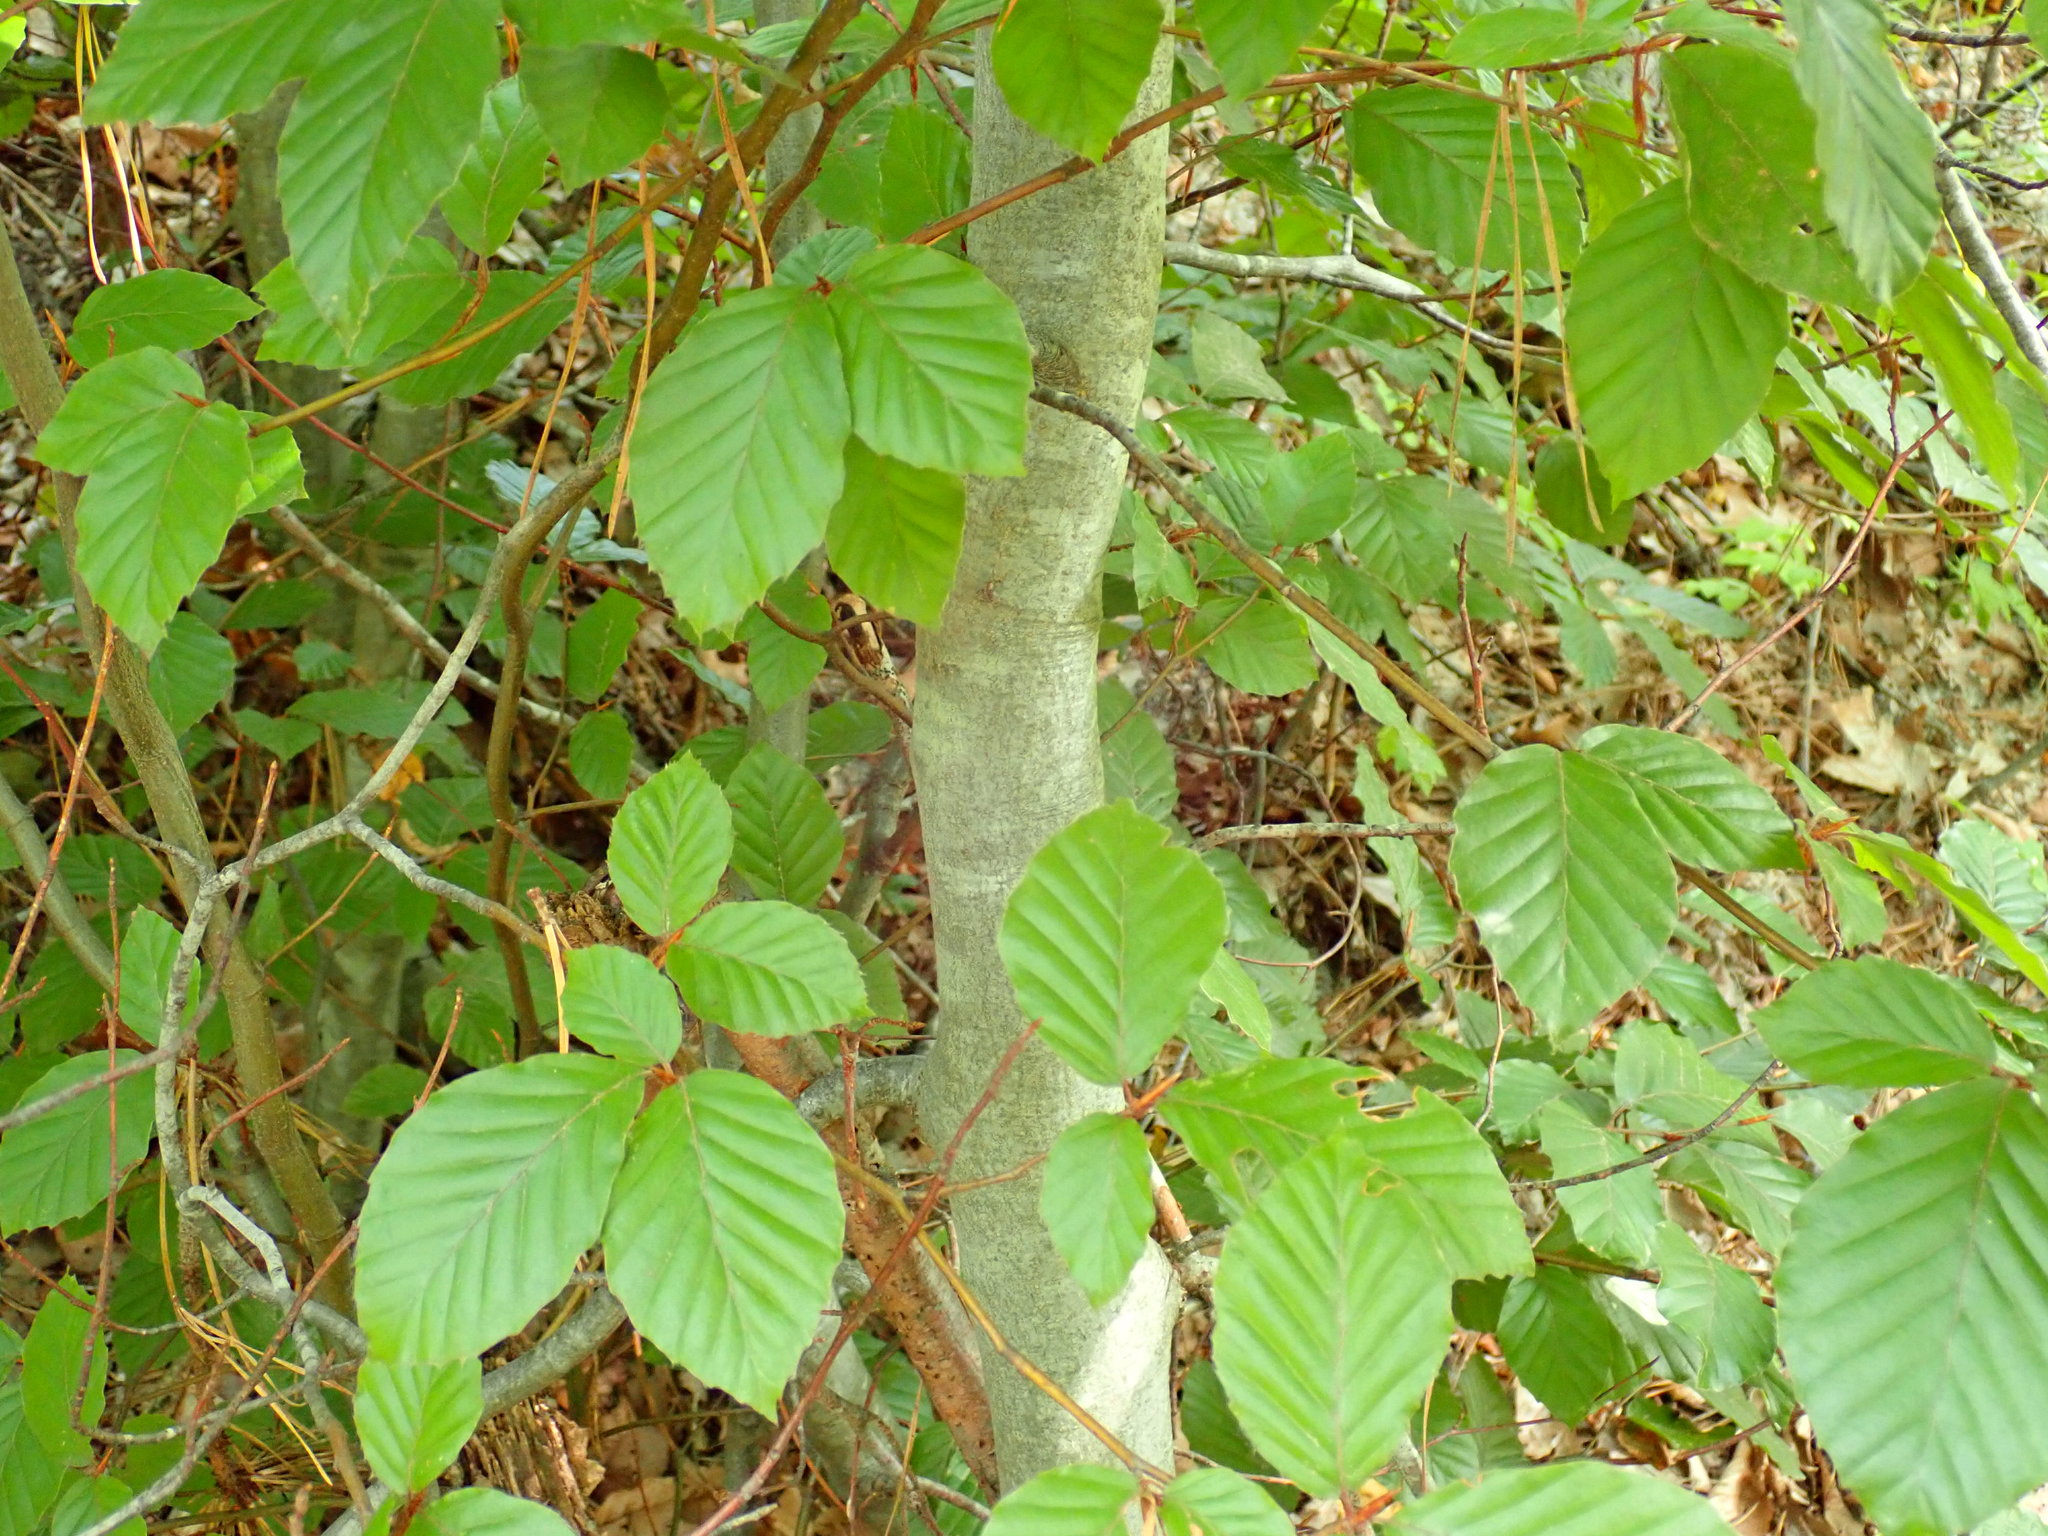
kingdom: Plantae
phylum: Tracheophyta
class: Magnoliopsida
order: Fagales
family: Fagaceae
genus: Fagus
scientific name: Fagus sylvatica
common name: Beech
